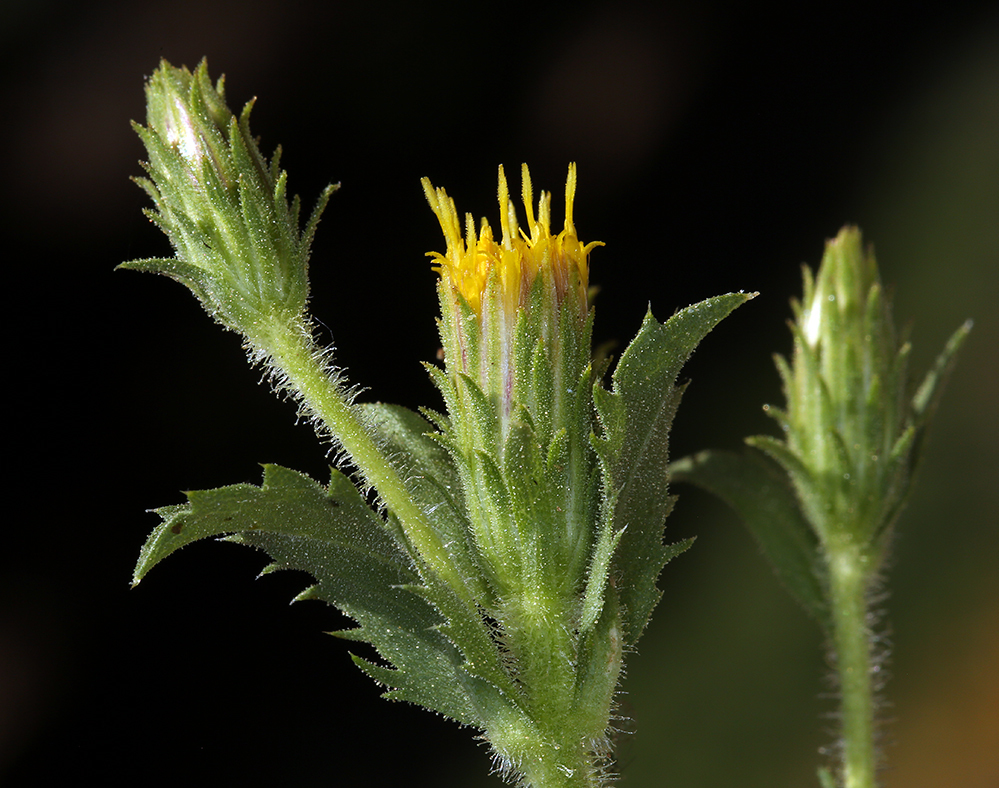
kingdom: Plantae
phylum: Tracheophyta
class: Magnoliopsida
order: Asterales
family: Asteraceae
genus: Adeia
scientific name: Adeia discoidea
